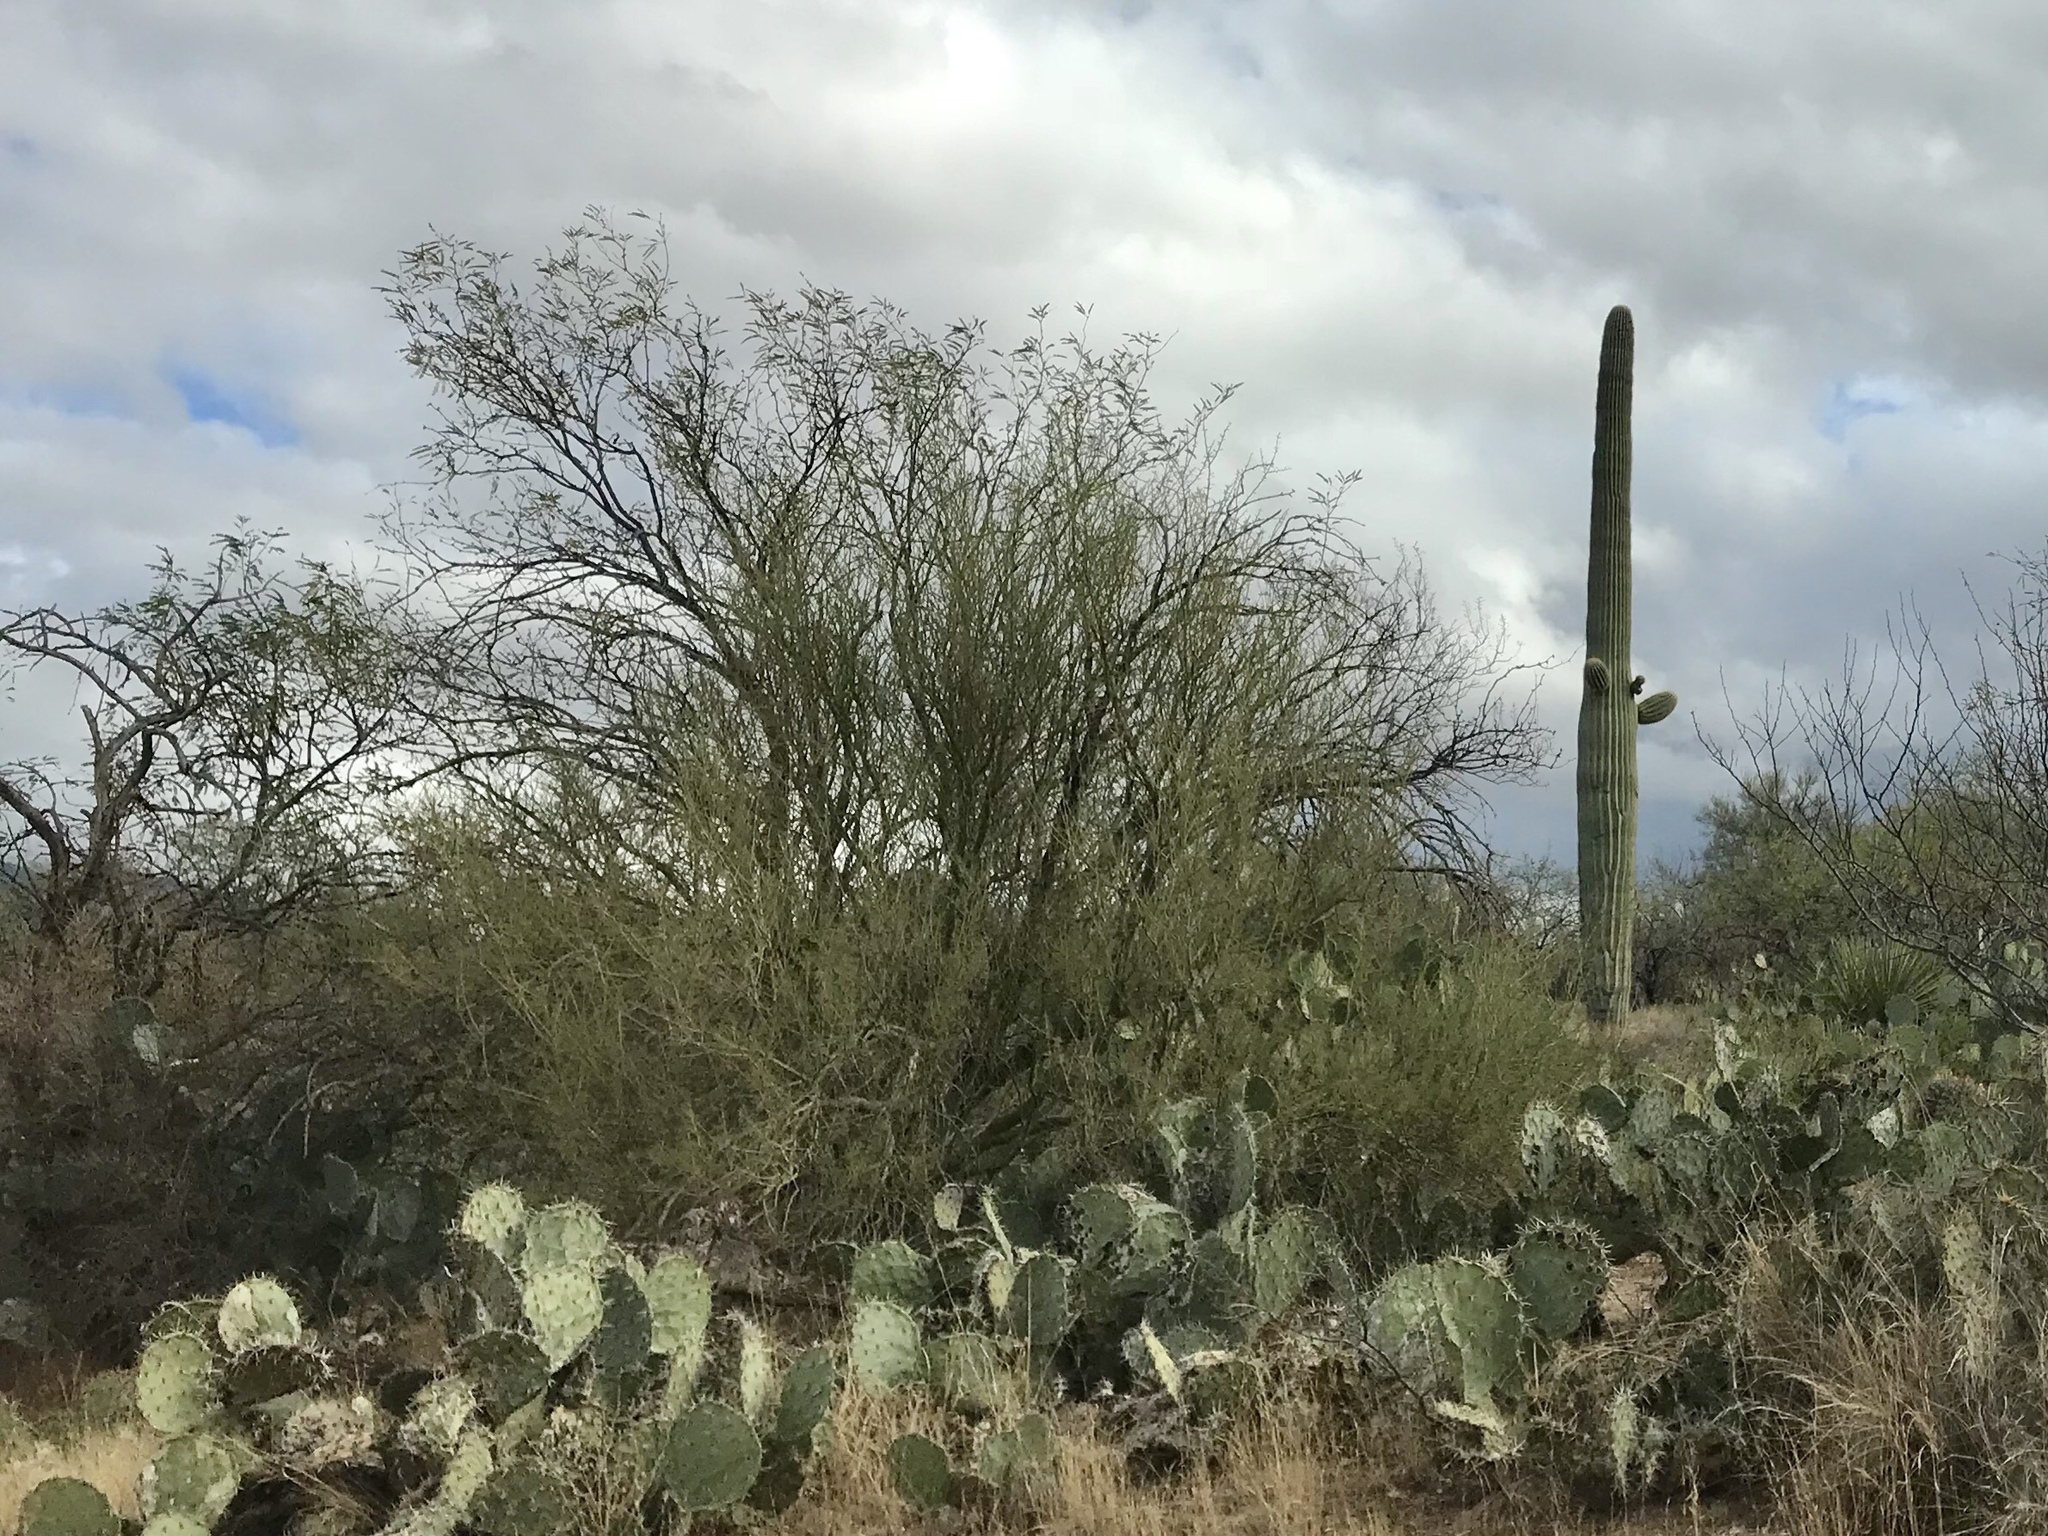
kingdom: Plantae
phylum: Tracheophyta
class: Magnoliopsida
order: Fabales
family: Fabaceae
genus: Parkinsonia
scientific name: Parkinsonia microphylla
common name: Yellow paloverde
